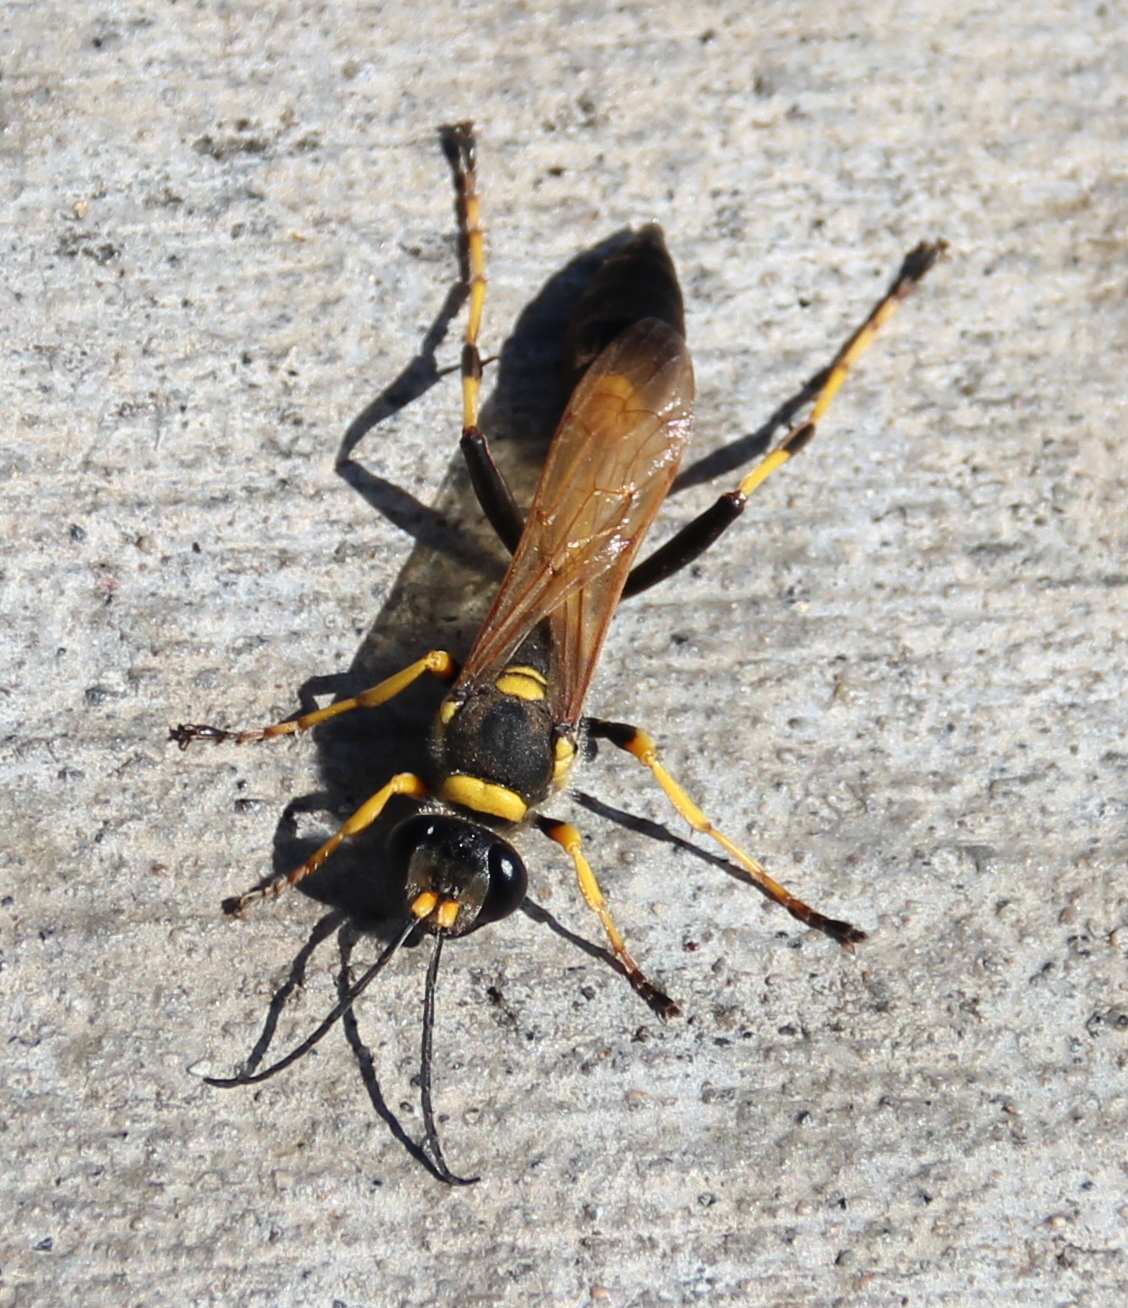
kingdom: Animalia
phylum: Arthropoda
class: Insecta
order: Hymenoptera
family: Sphecidae
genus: Sceliphron
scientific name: Sceliphron caementarium
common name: Mud dauber
